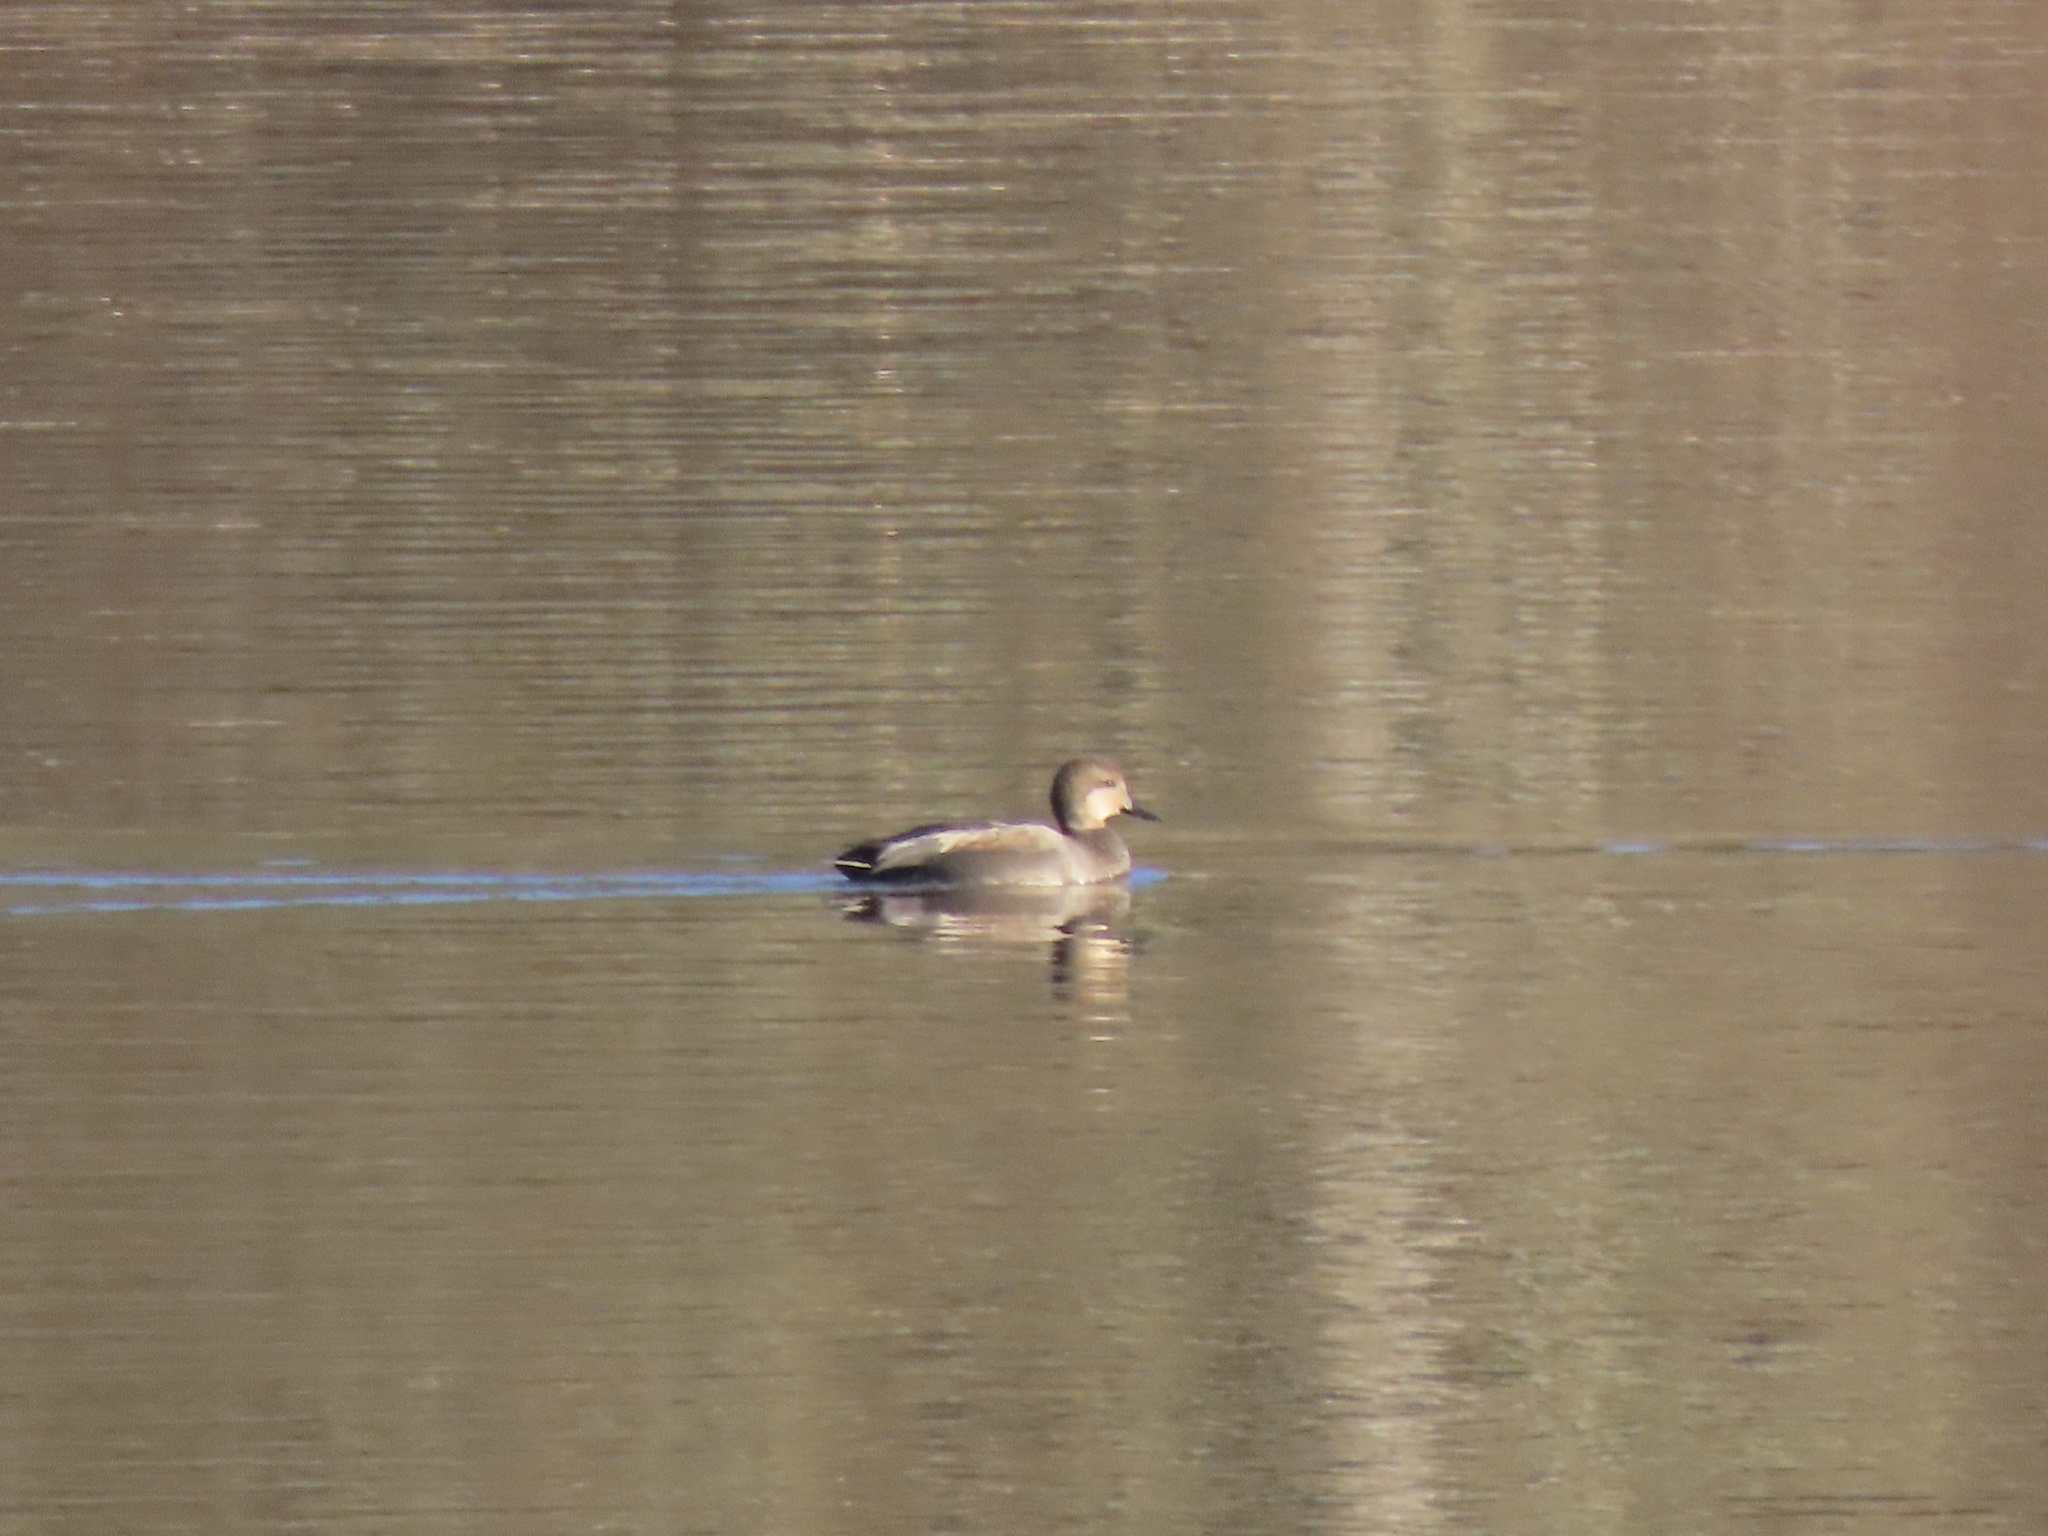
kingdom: Animalia
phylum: Chordata
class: Aves
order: Anseriformes
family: Anatidae
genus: Mareca
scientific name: Mareca strepera
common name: Gadwall
